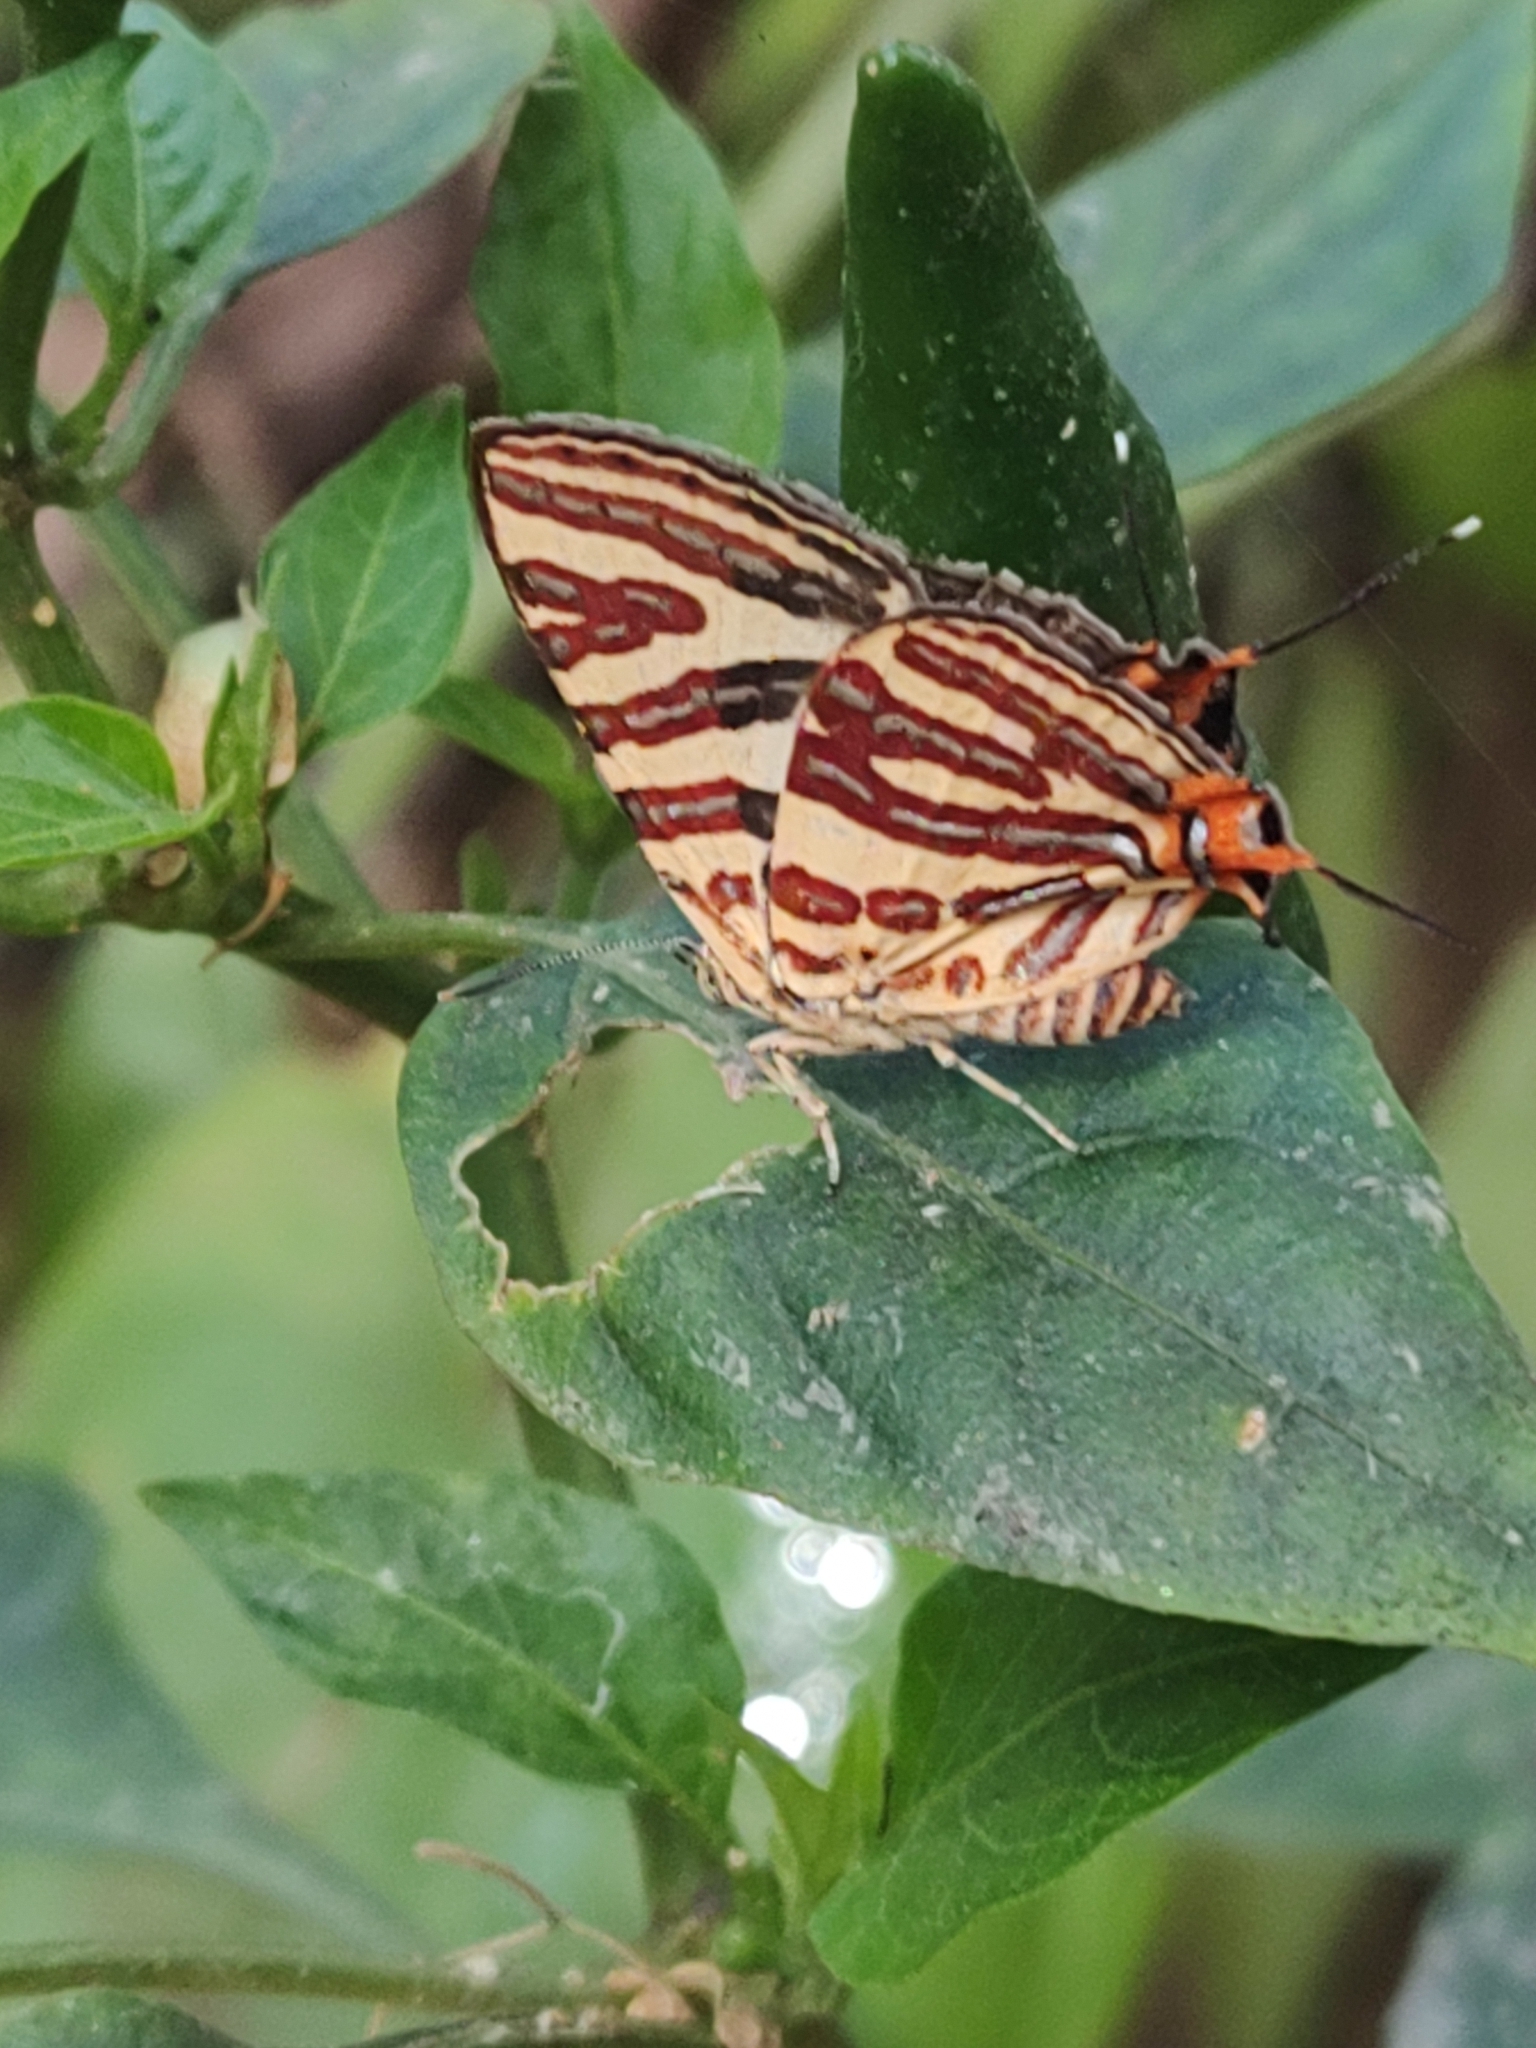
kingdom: Animalia
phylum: Arthropoda
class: Insecta
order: Lepidoptera
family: Lycaenidae
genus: Cigaritis
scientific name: Cigaritis lohita
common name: Long-banded silverline
